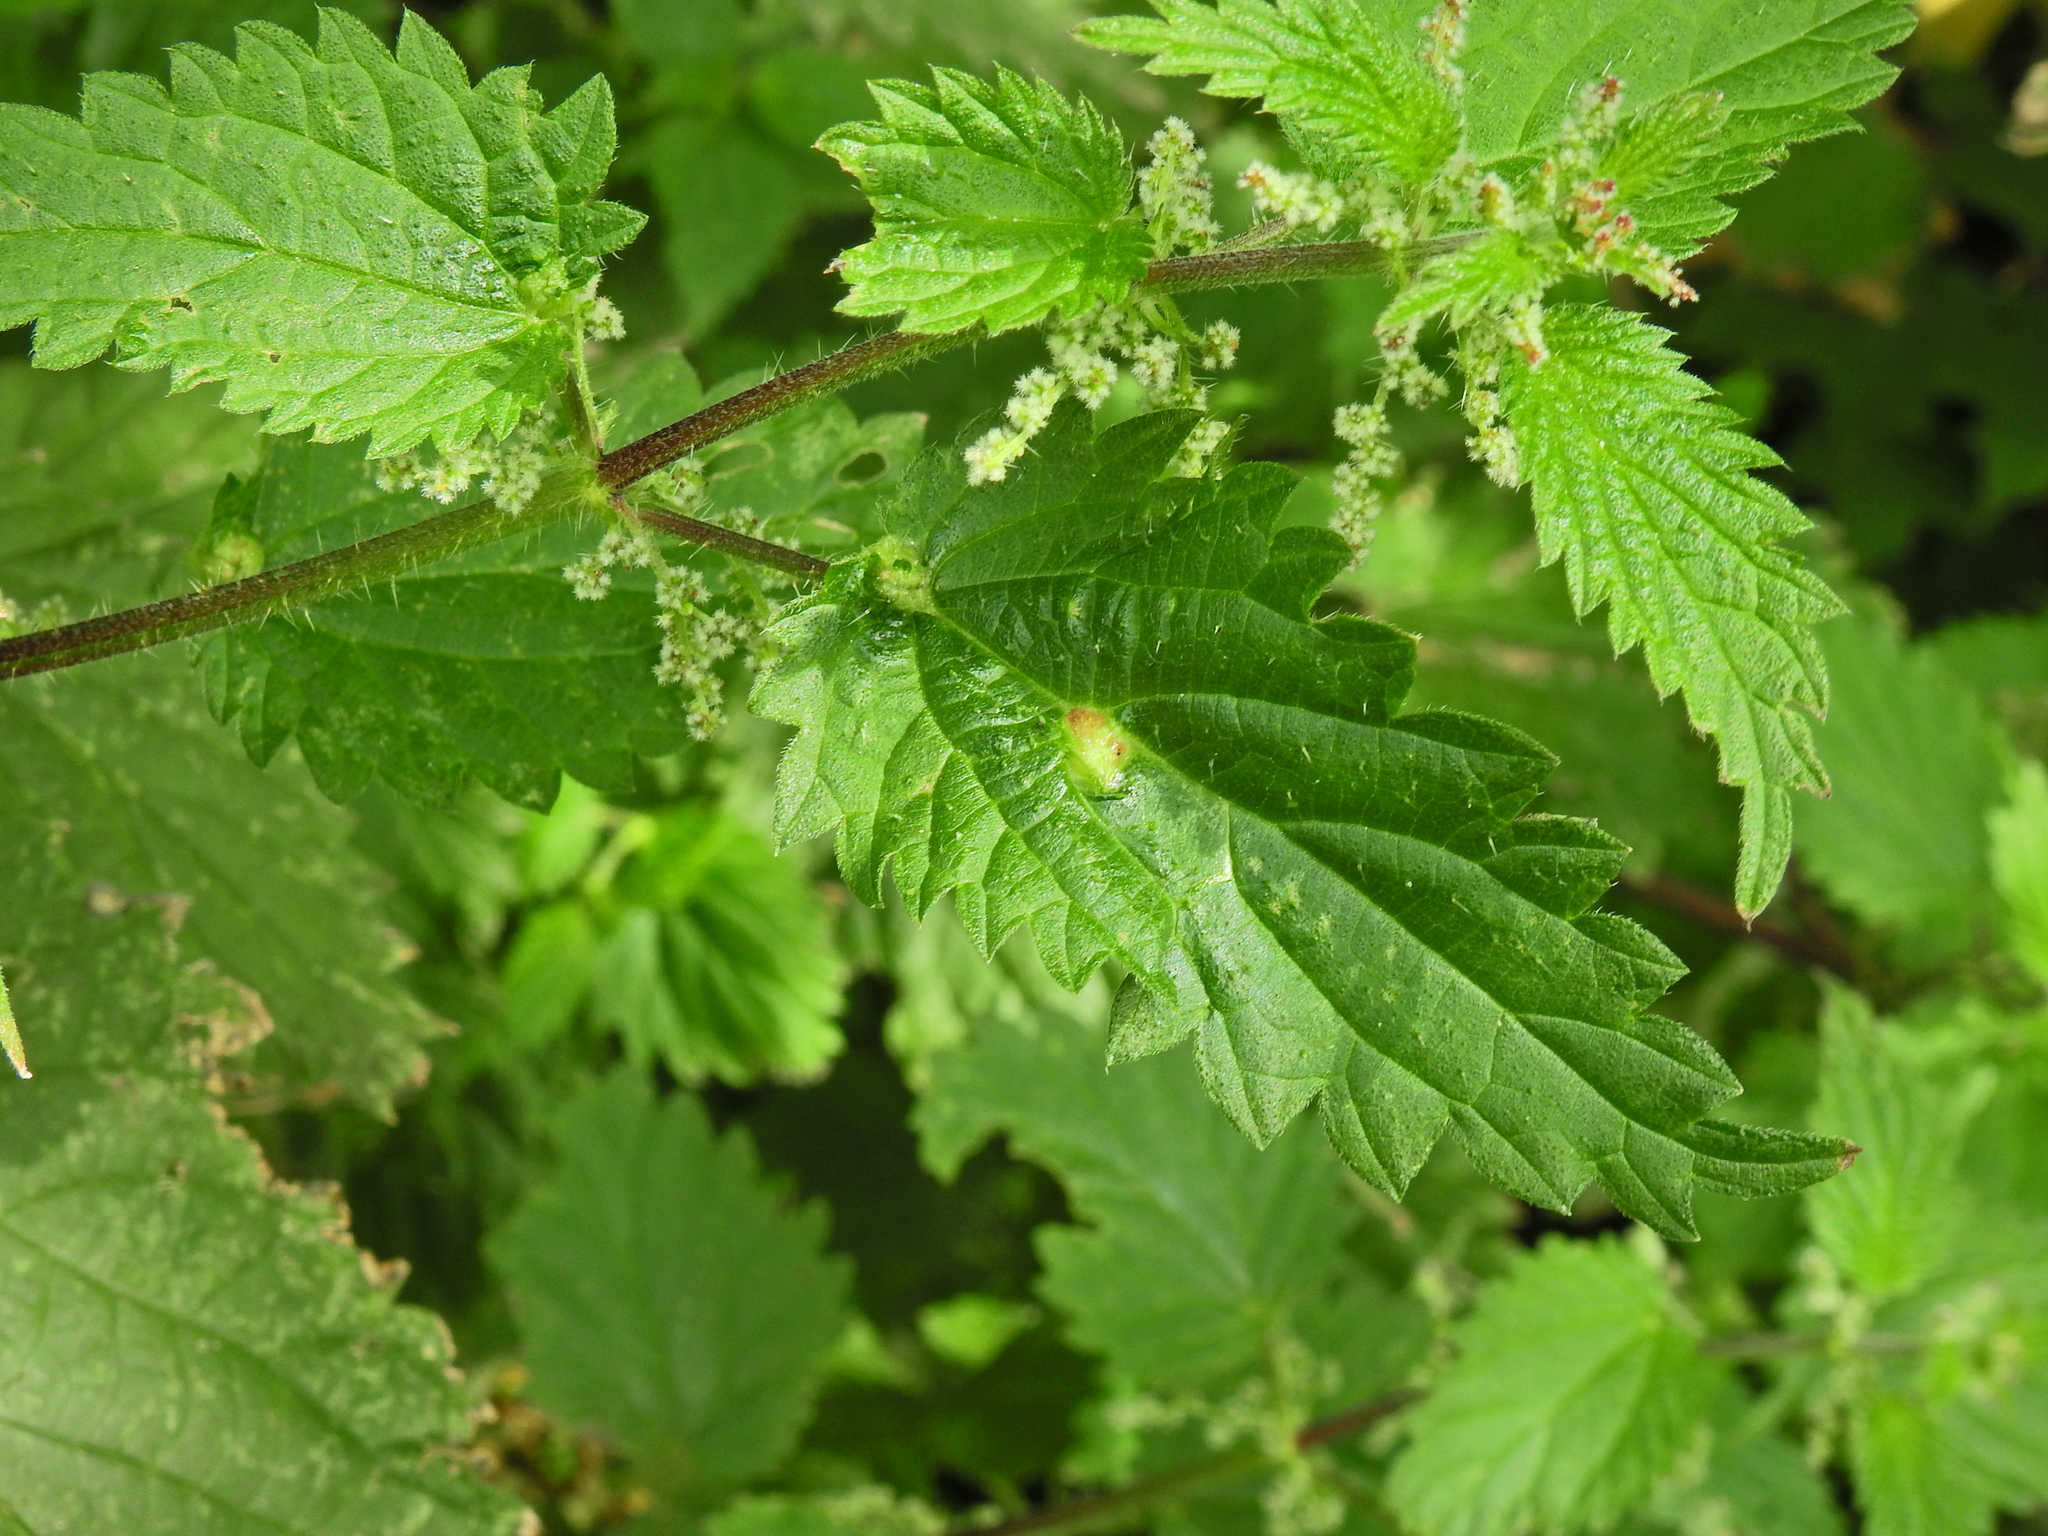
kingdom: Animalia
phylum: Arthropoda
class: Insecta
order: Diptera
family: Cecidomyiidae
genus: Dasineura
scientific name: Dasineura urticae
